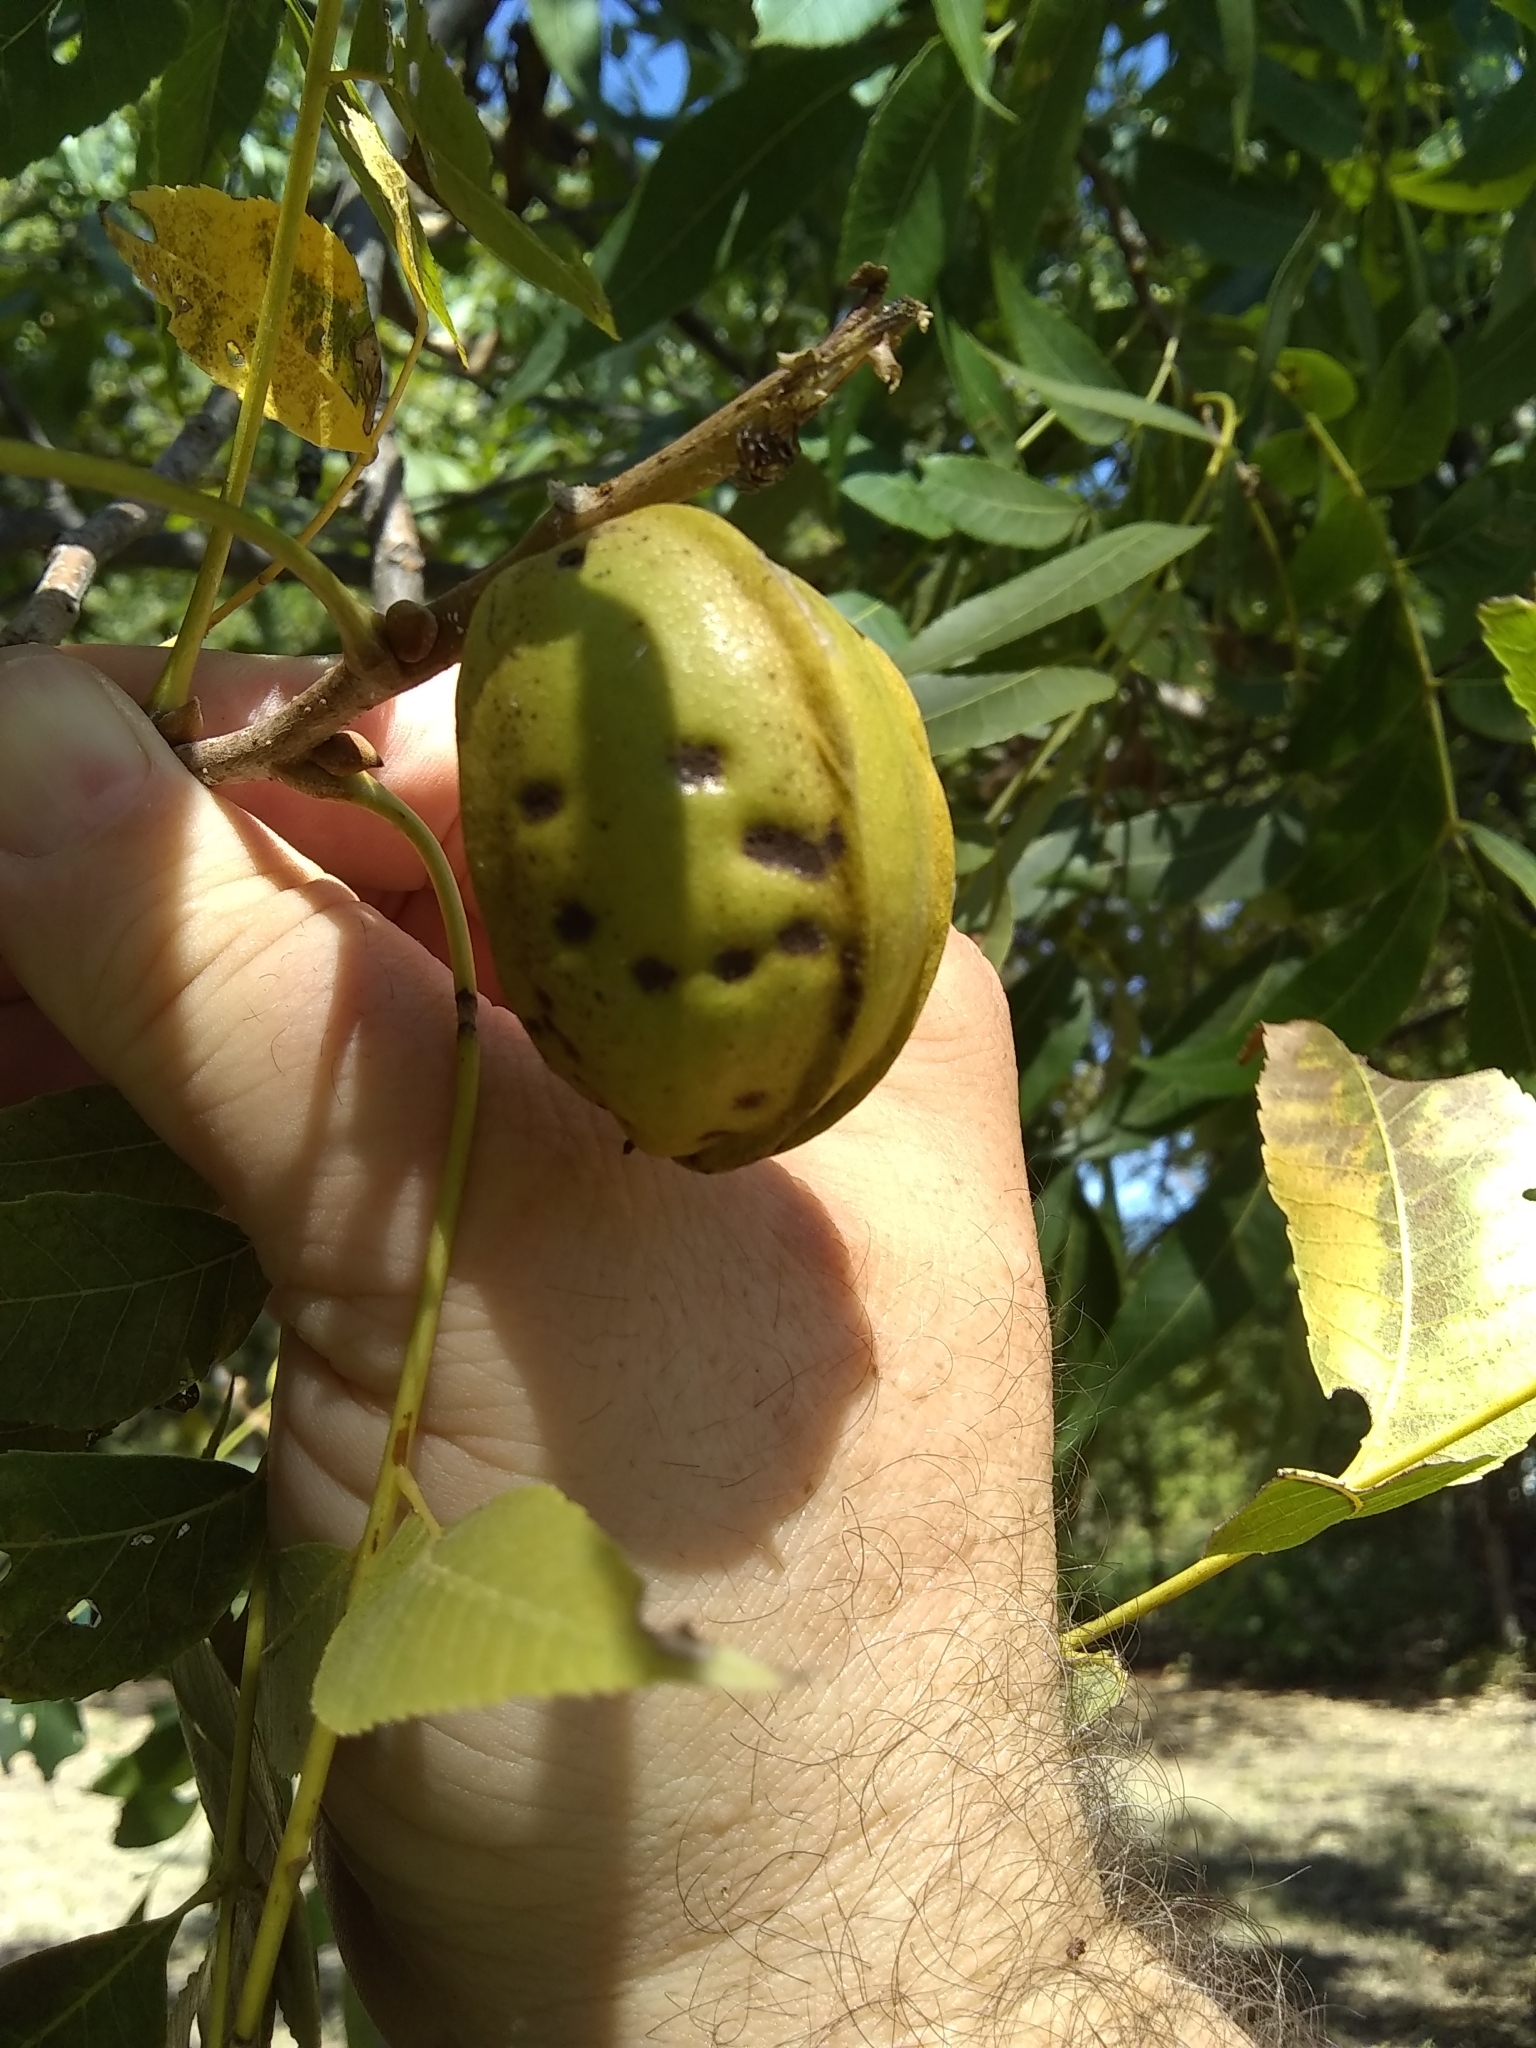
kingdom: Plantae
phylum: Tracheophyta
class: Magnoliopsida
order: Fagales
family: Juglandaceae
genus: Carya
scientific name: Carya illinoinensis
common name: Pecan
